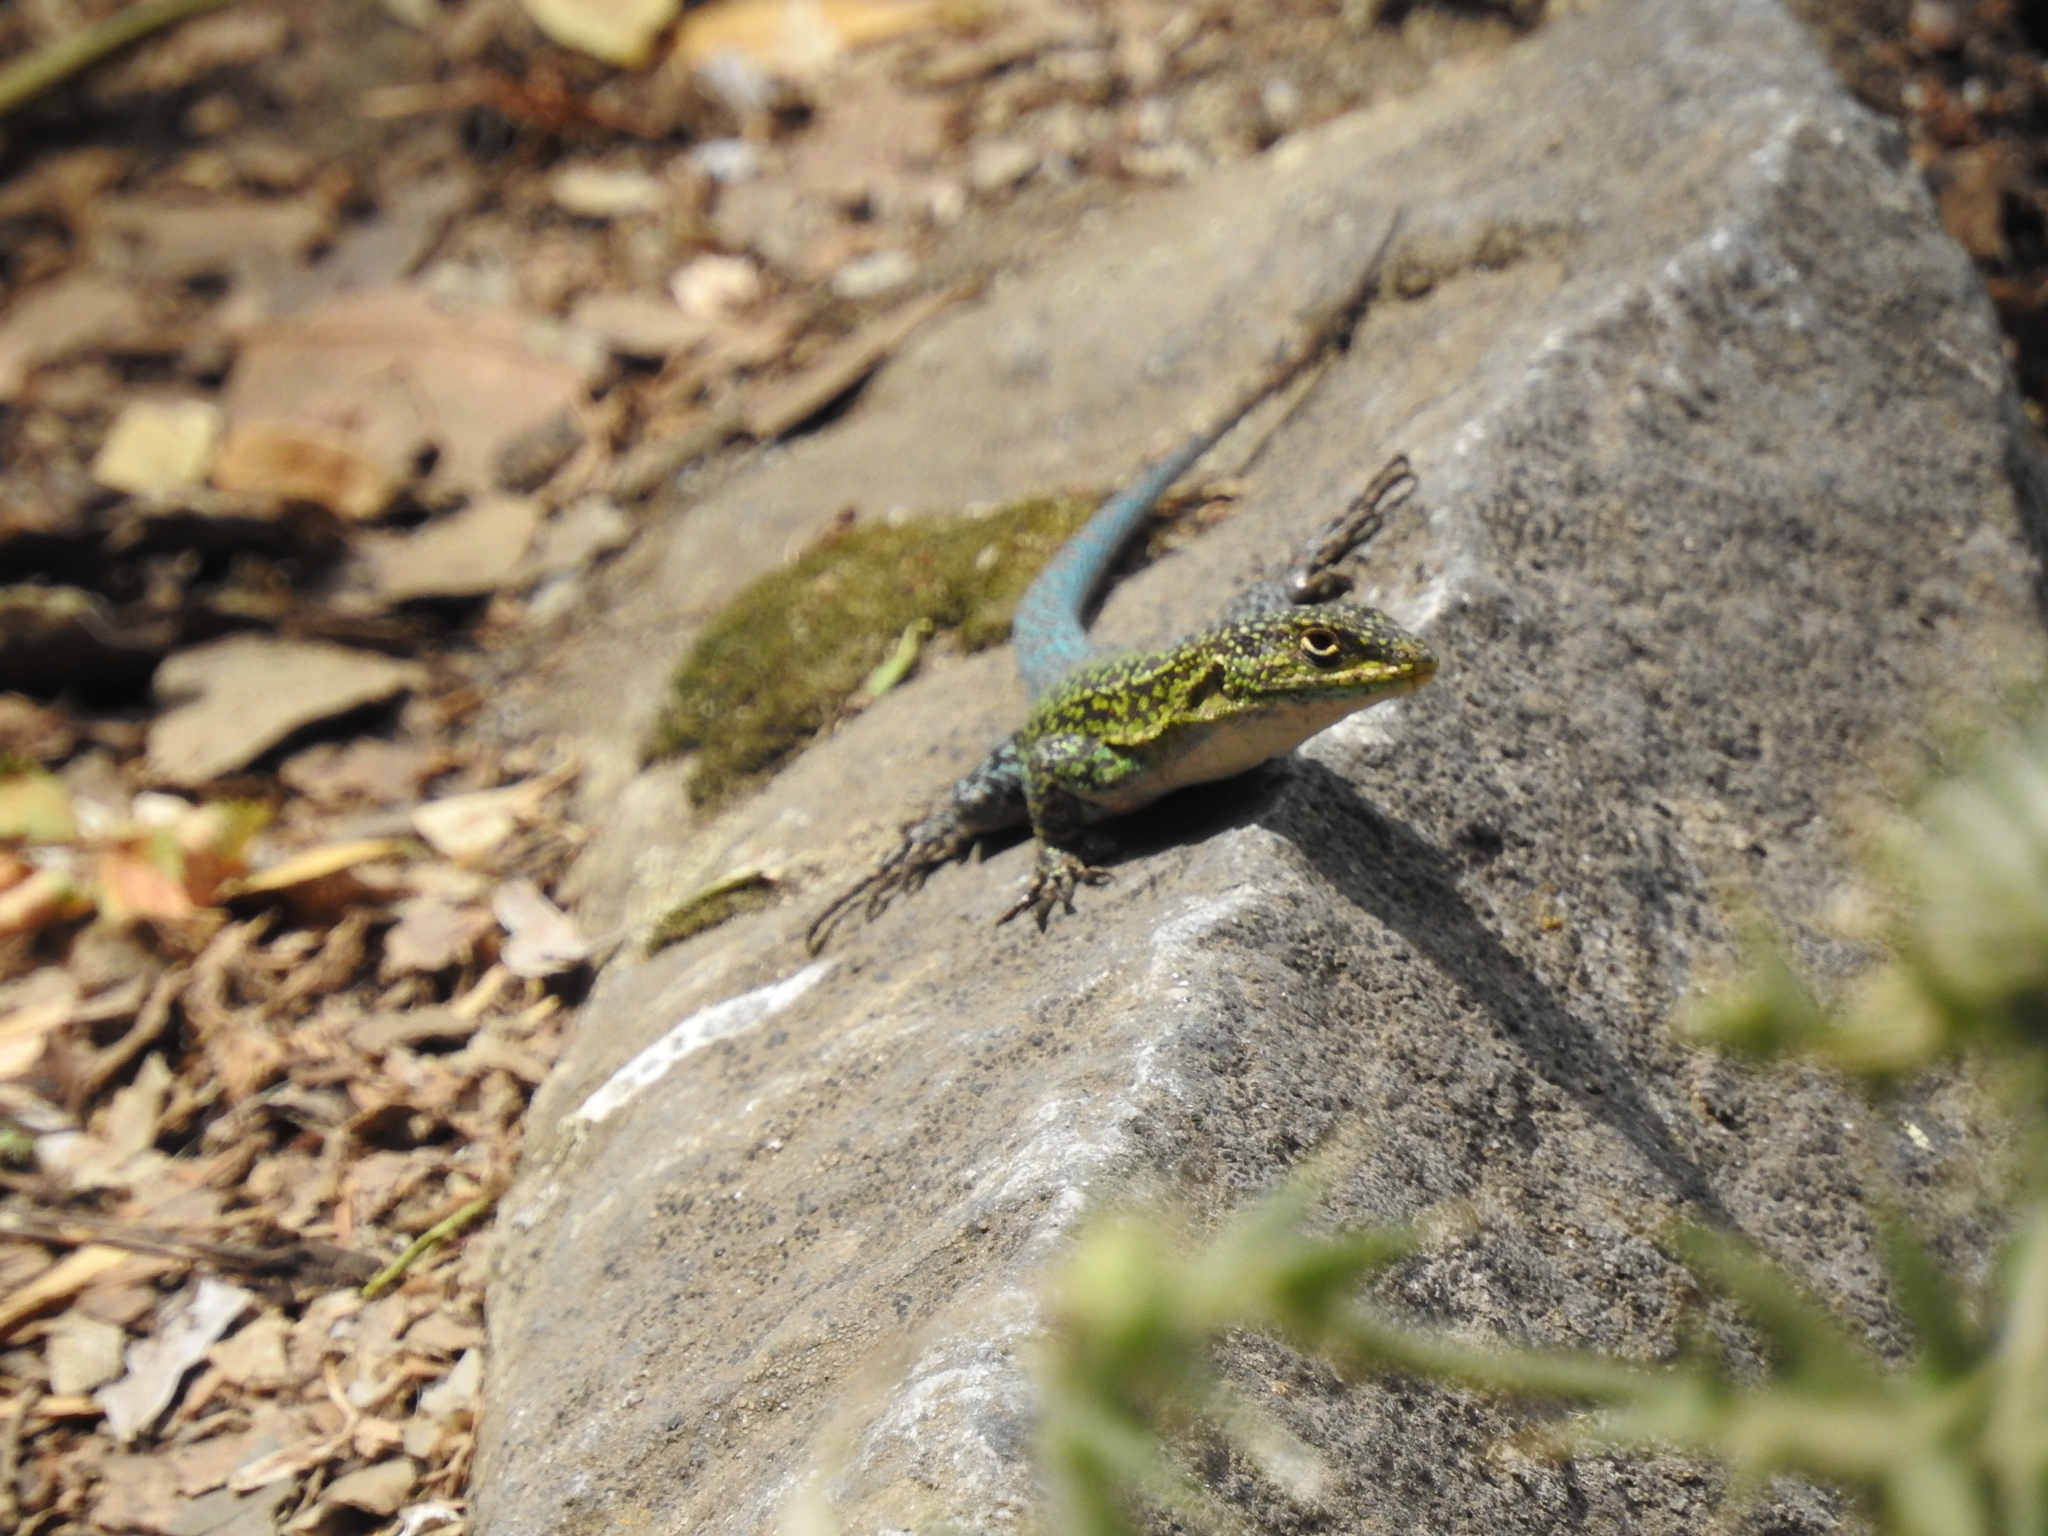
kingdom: Animalia
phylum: Chordata
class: Squamata
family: Liolaemidae
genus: Liolaemus
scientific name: Liolaemus tenuis
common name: Thin tree iguana
